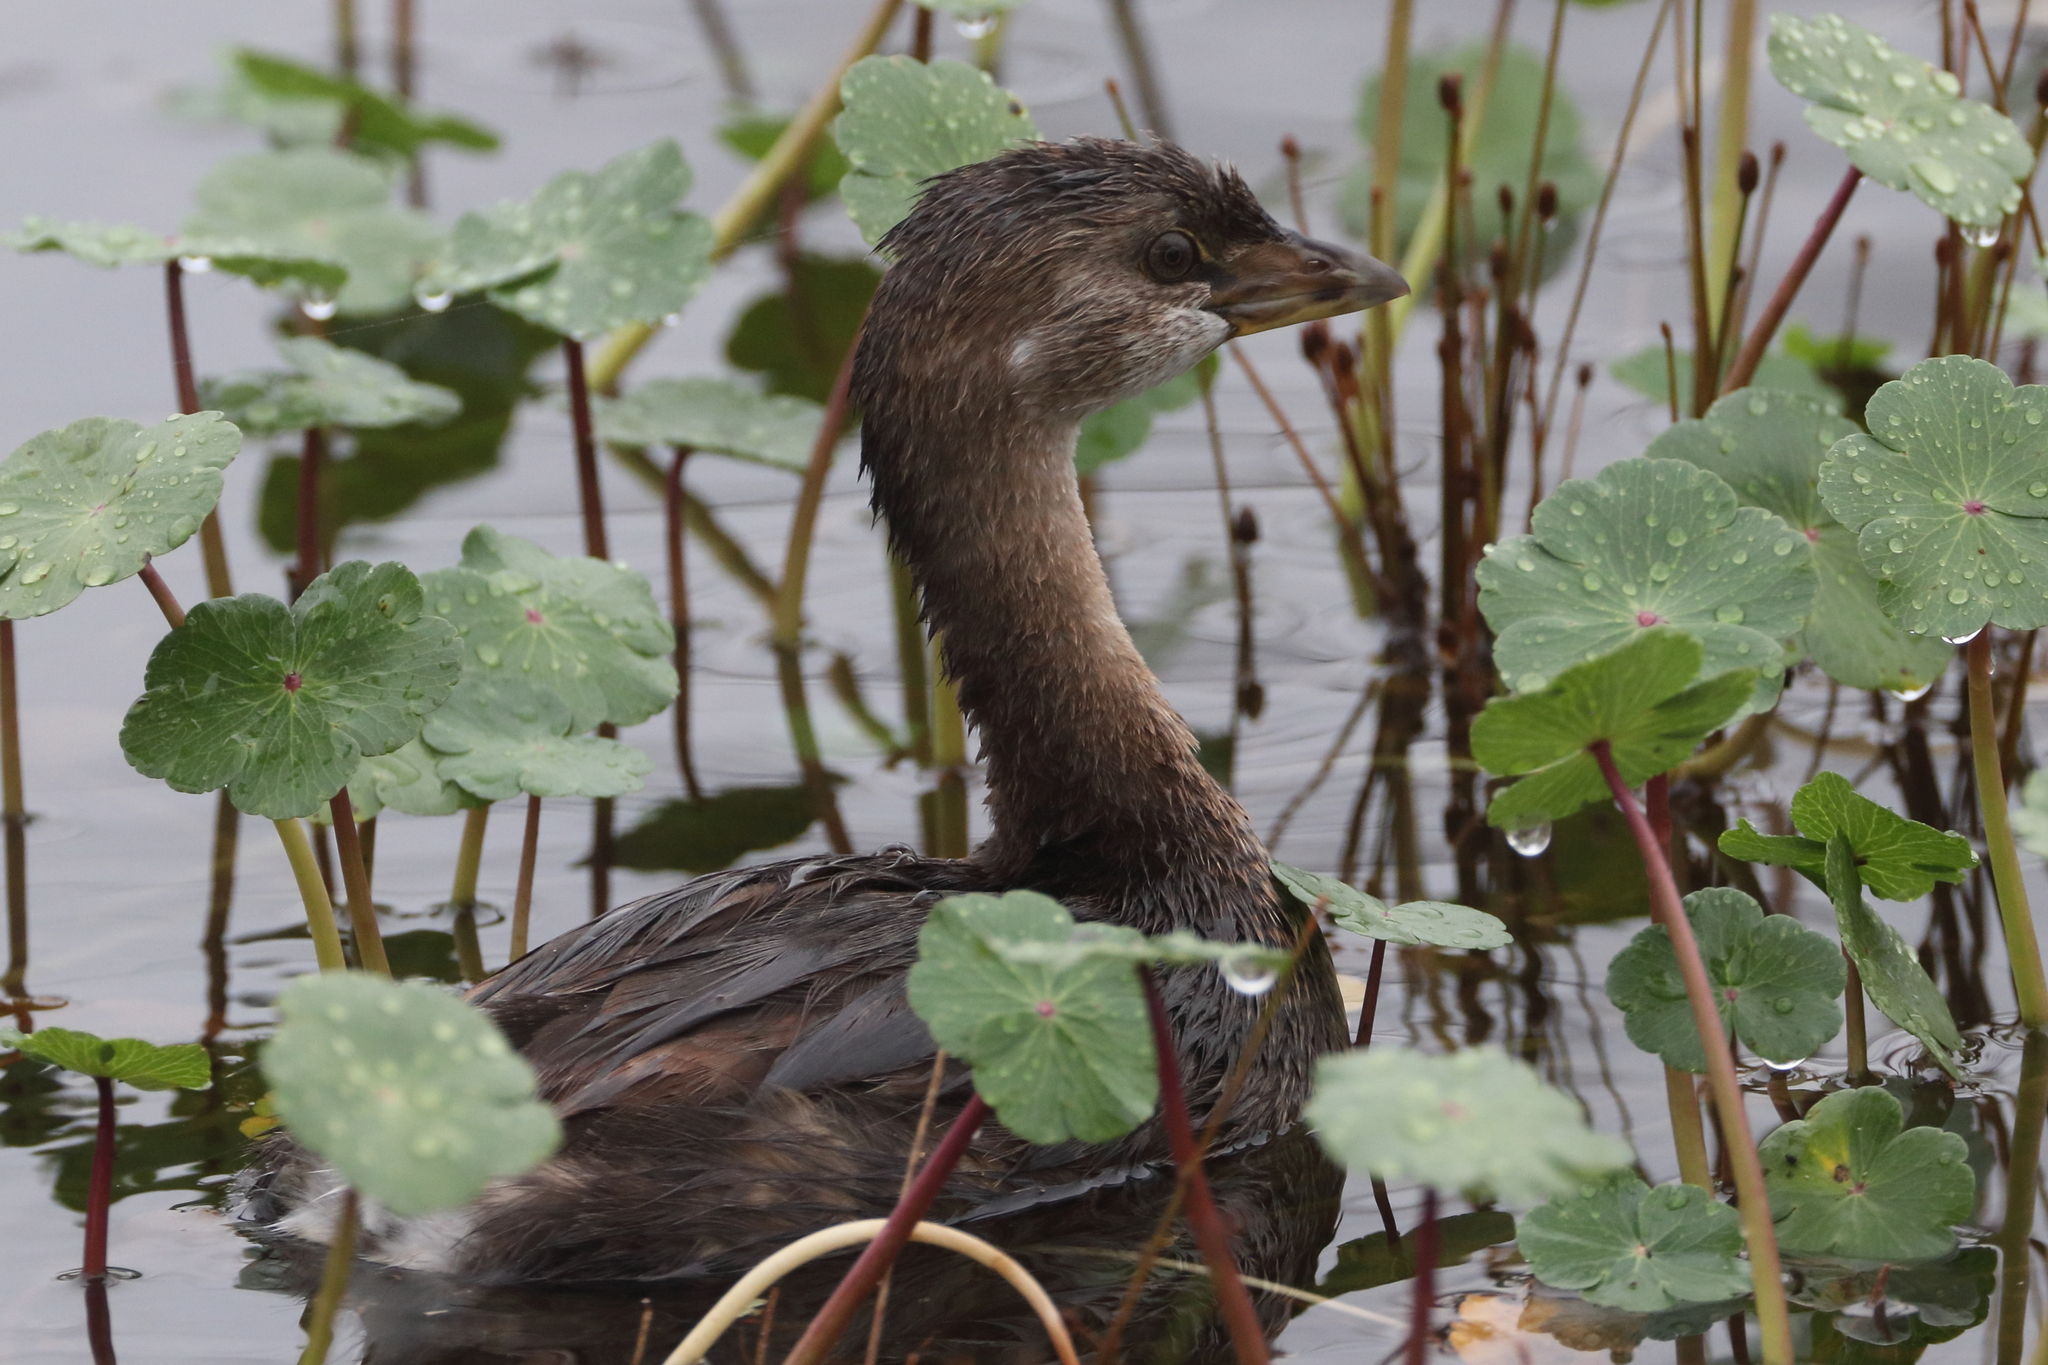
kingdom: Animalia
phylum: Chordata
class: Aves
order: Podicipediformes
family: Podicipedidae
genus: Podilymbus
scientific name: Podilymbus podiceps
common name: Pied-billed grebe
